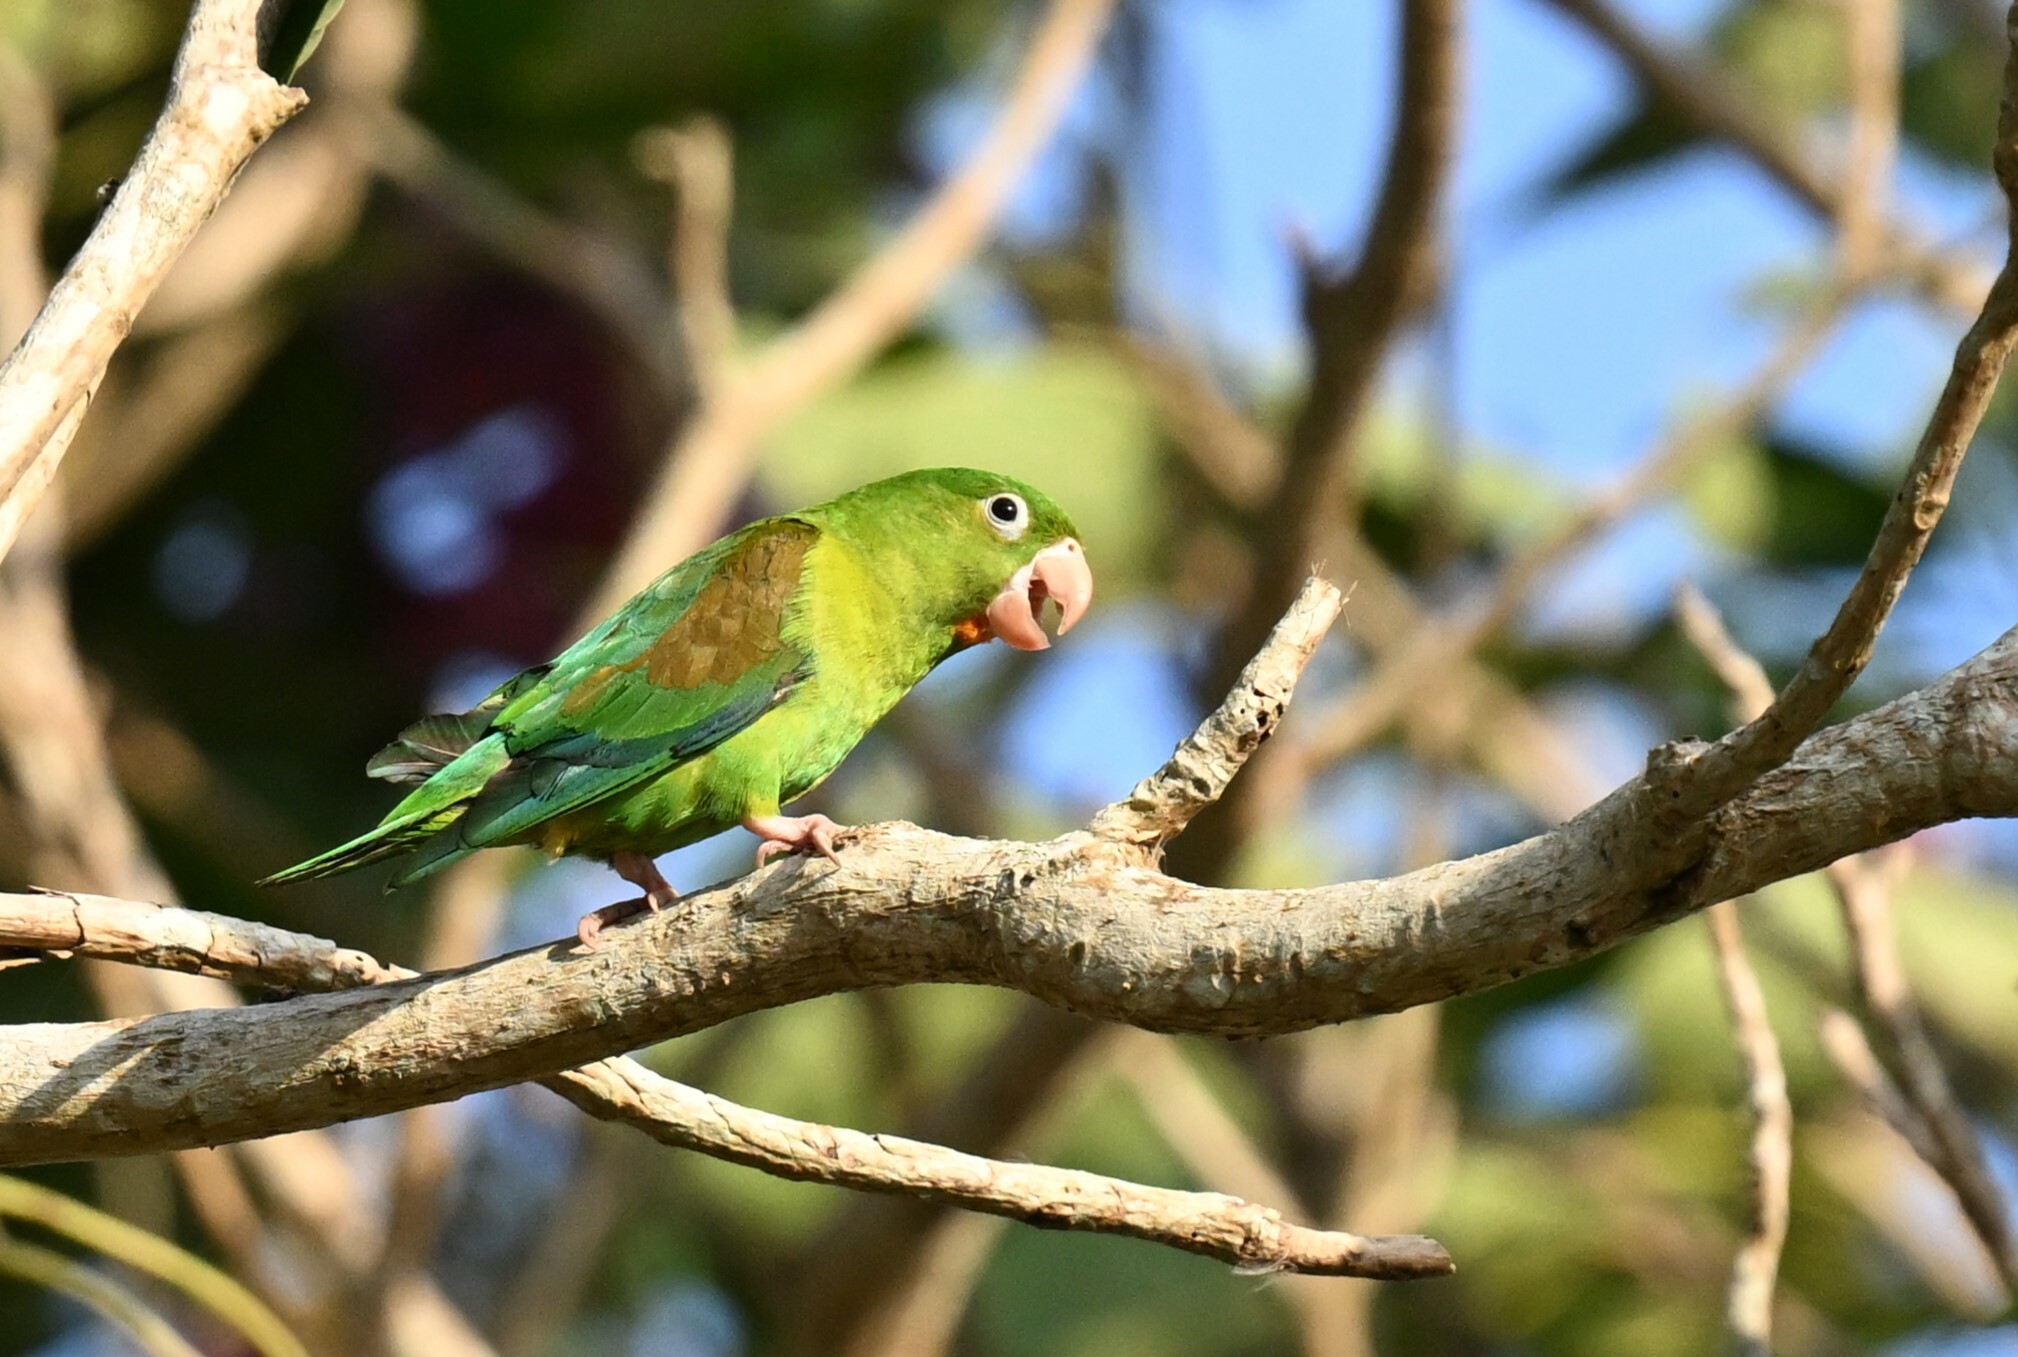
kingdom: Animalia
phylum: Chordata
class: Aves
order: Psittaciformes
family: Psittacidae
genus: Brotogeris
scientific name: Brotogeris jugularis
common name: Orange-chinned parakeet
